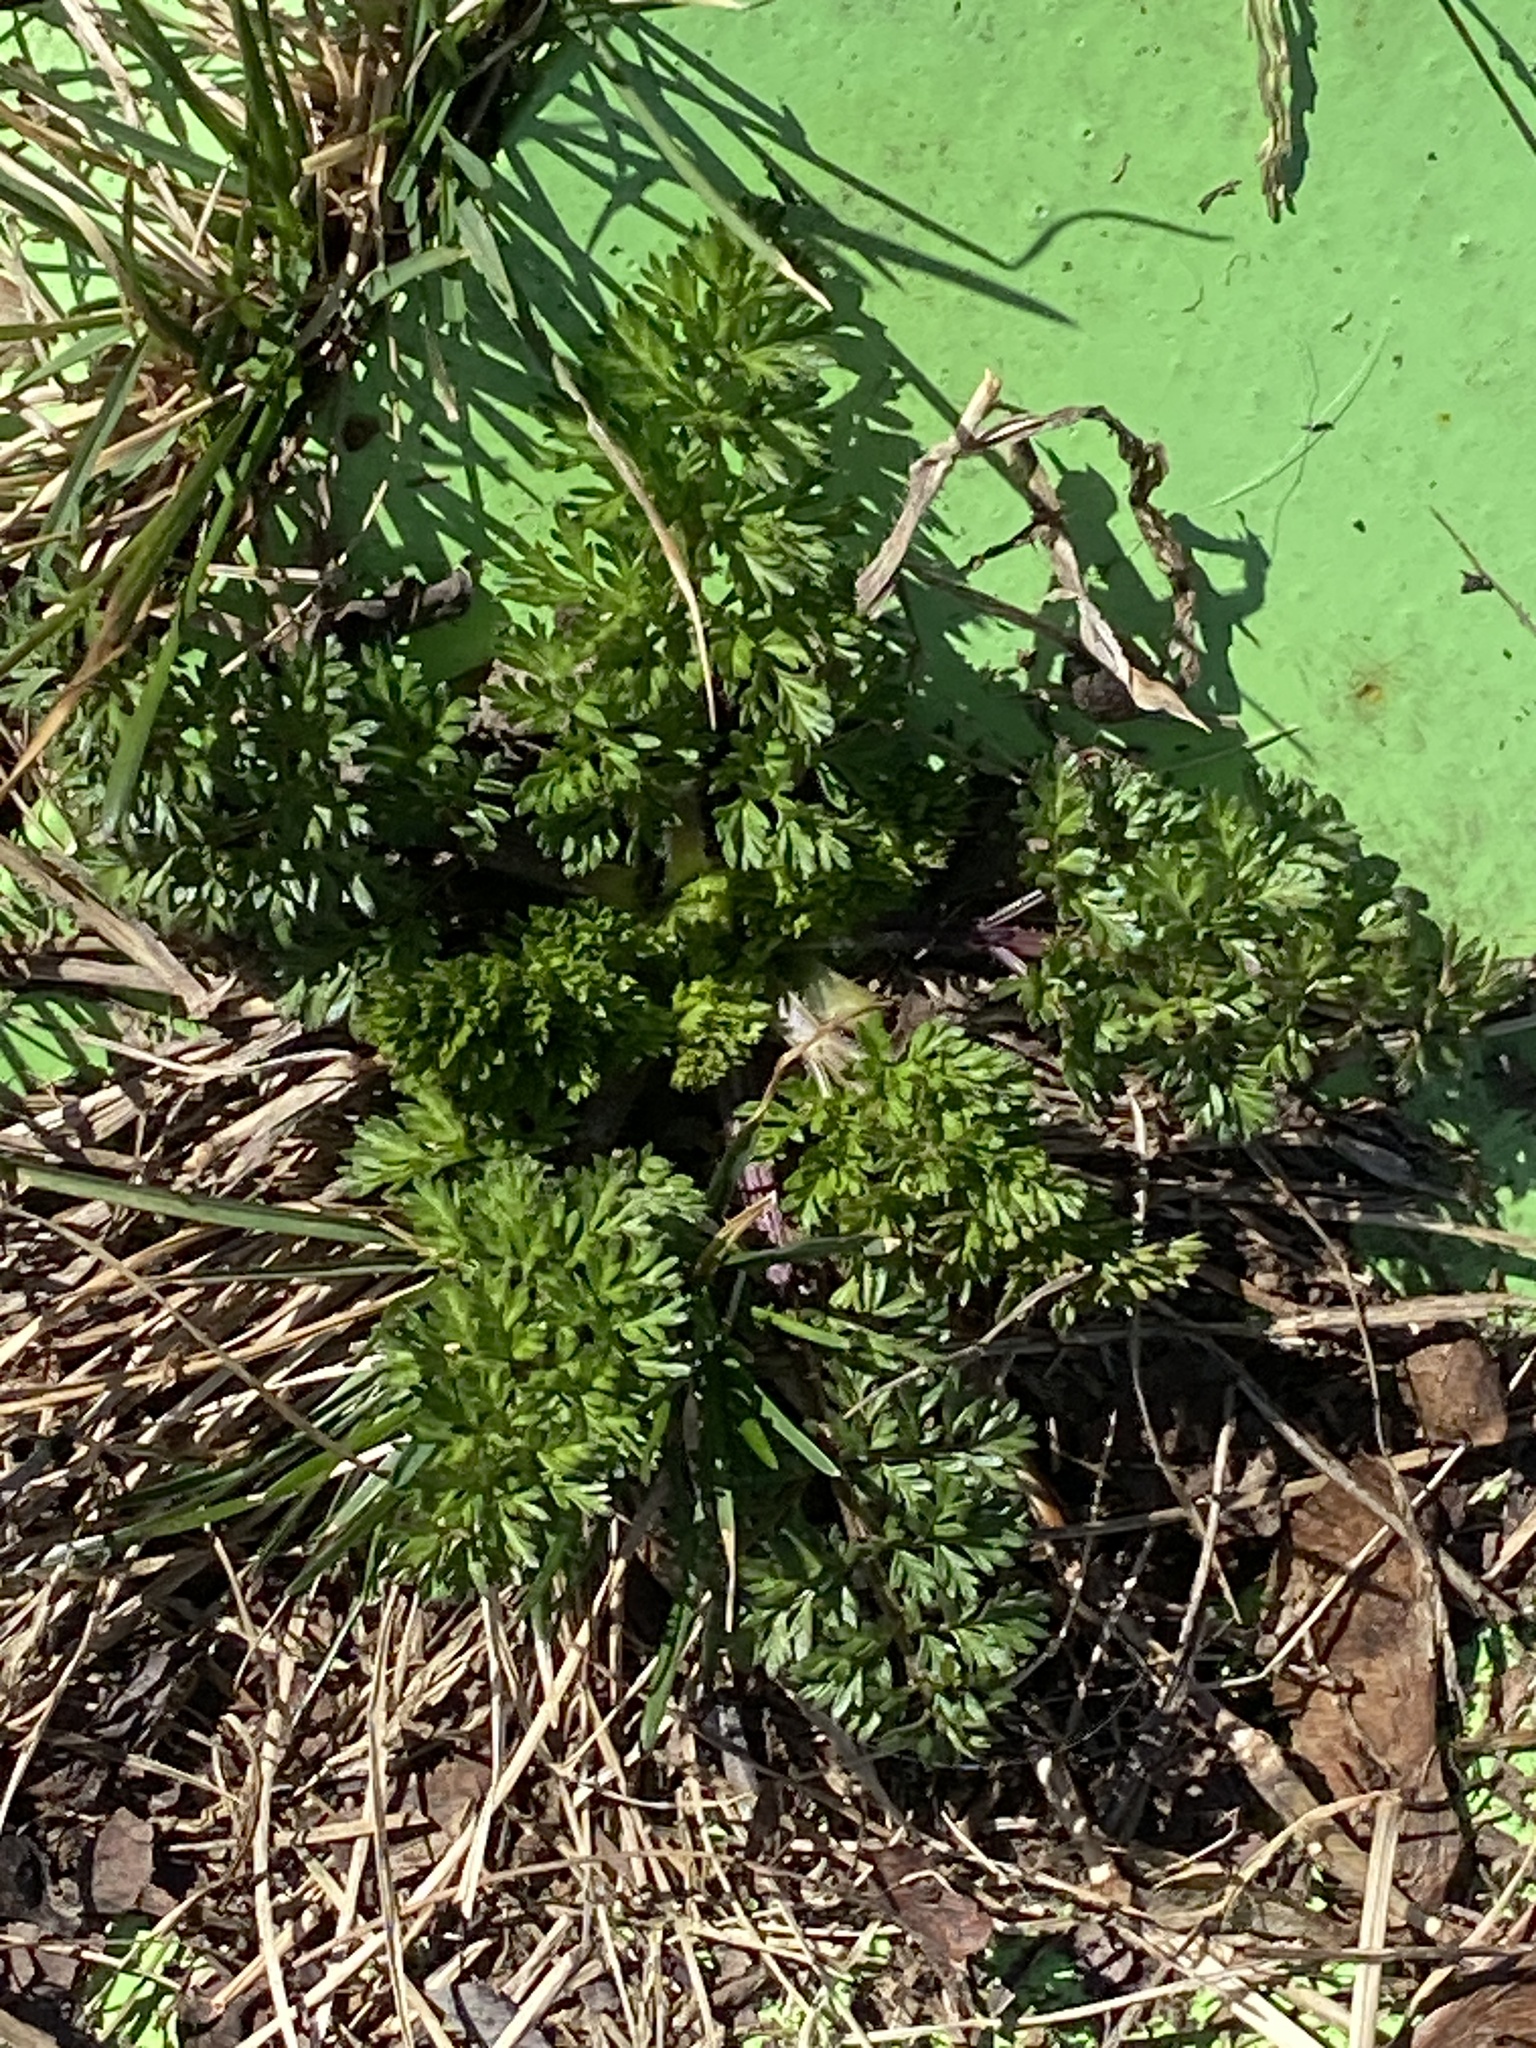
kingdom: Plantae
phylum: Tracheophyta
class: Magnoliopsida
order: Apiales
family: Apiaceae
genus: Daucus
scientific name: Daucus carota
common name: Wild carrot
